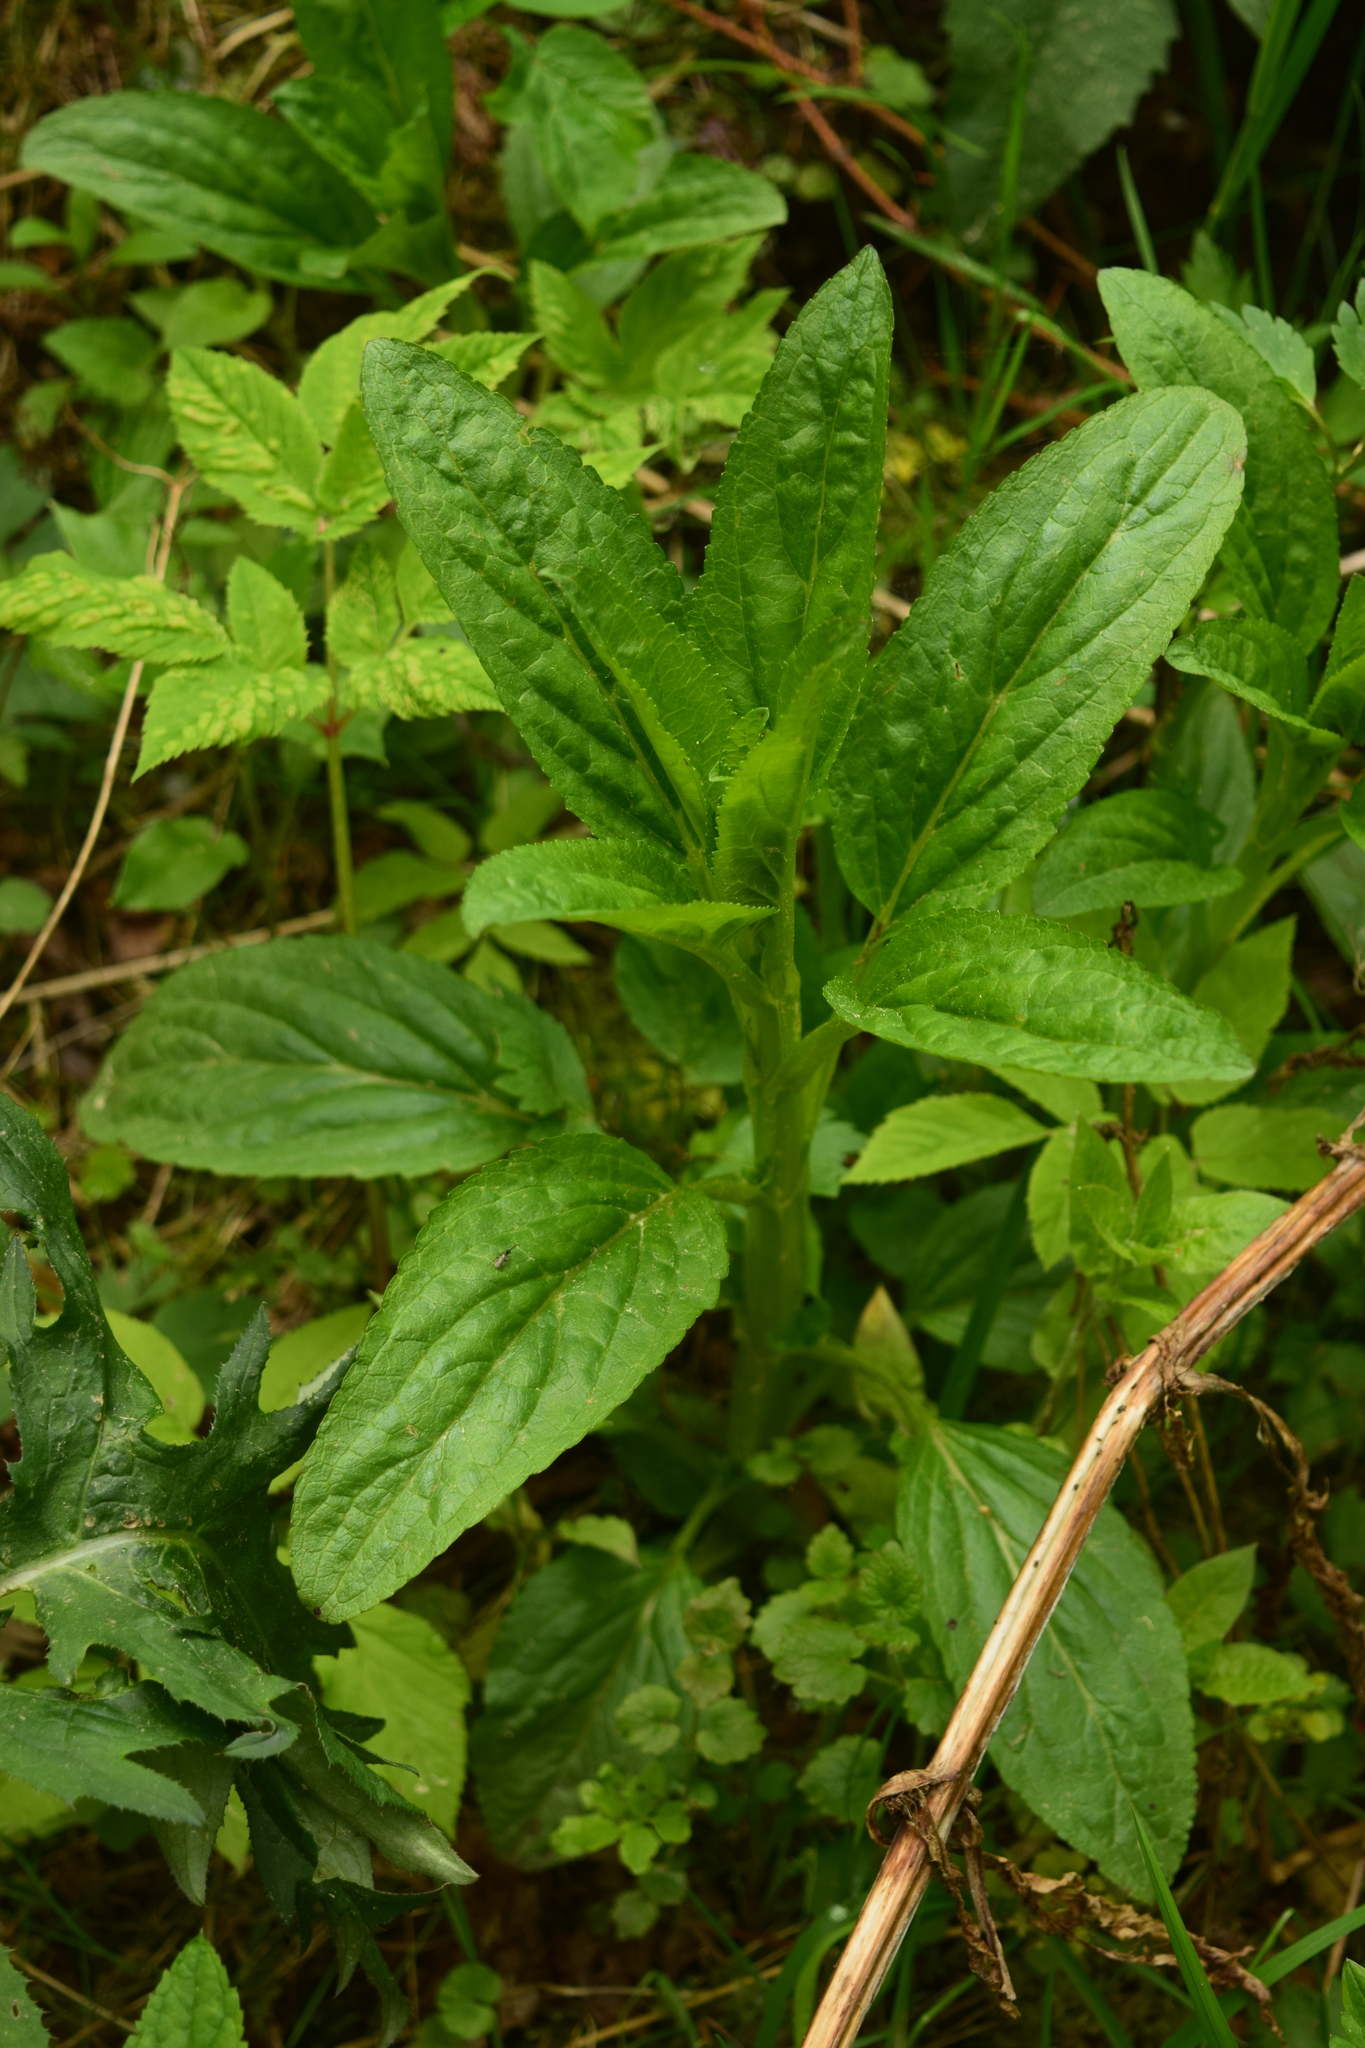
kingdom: Plantae
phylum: Tracheophyta
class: Magnoliopsida
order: Lamiales
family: Scrophulariaceae
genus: Scrophularia
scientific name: Scrophularia umbrosa
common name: Green figwort
